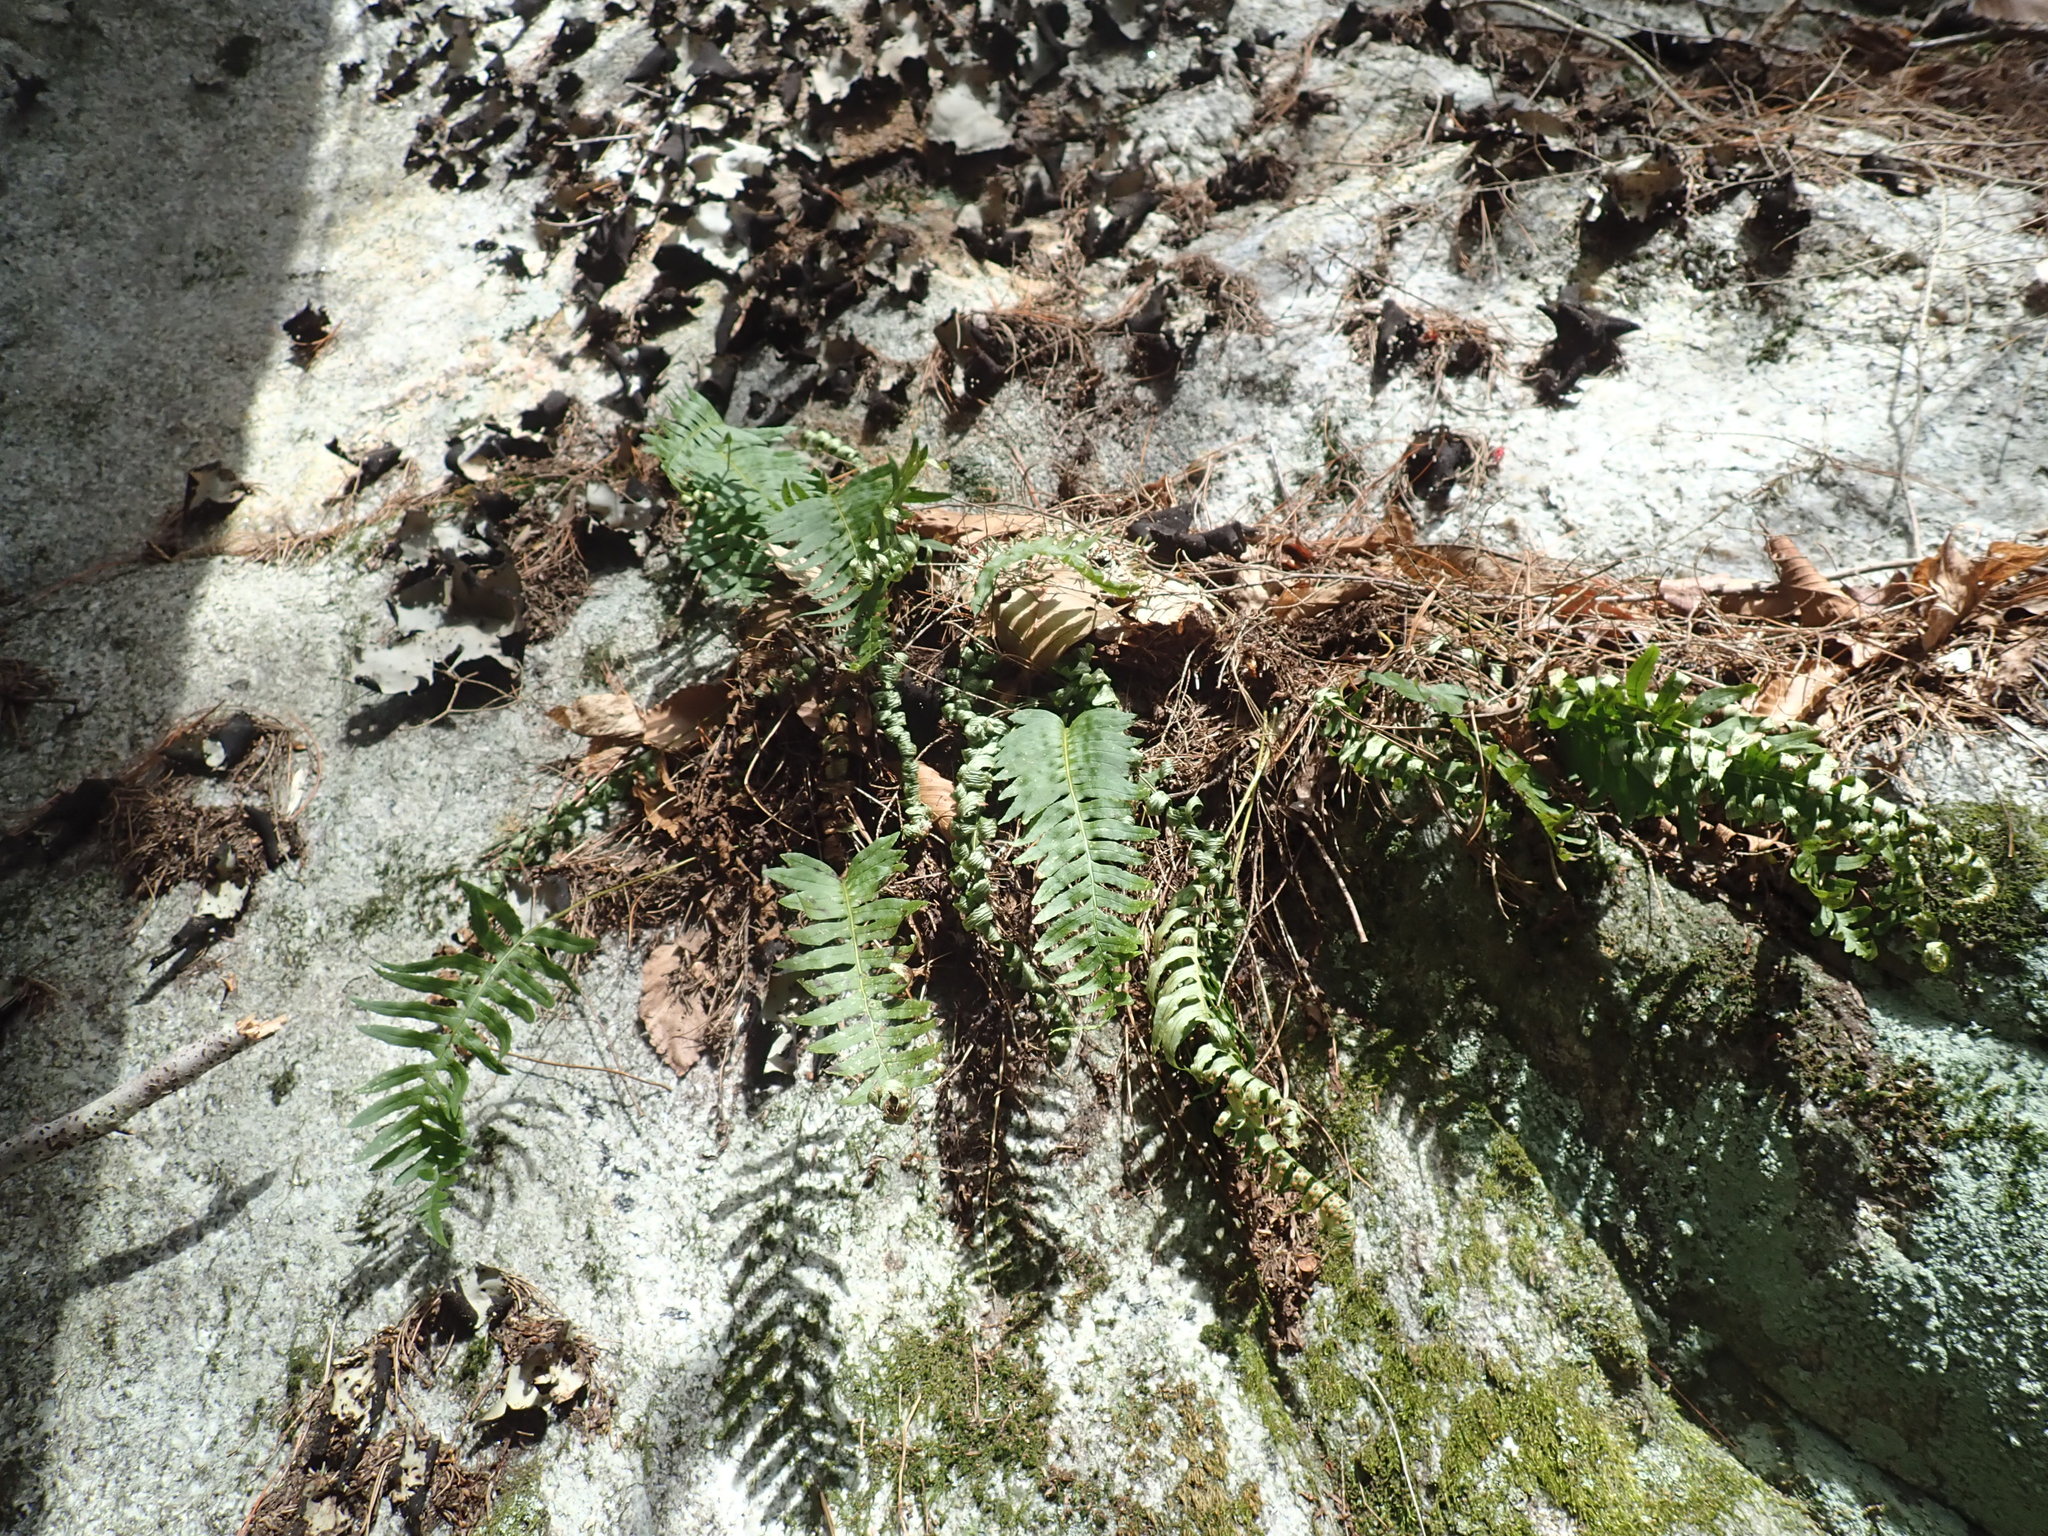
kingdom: Plantae
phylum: Tracheophyta
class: Polypodiopsida
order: Polypodiales
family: Polypodiaceae
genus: Polypodium
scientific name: Polypodium
